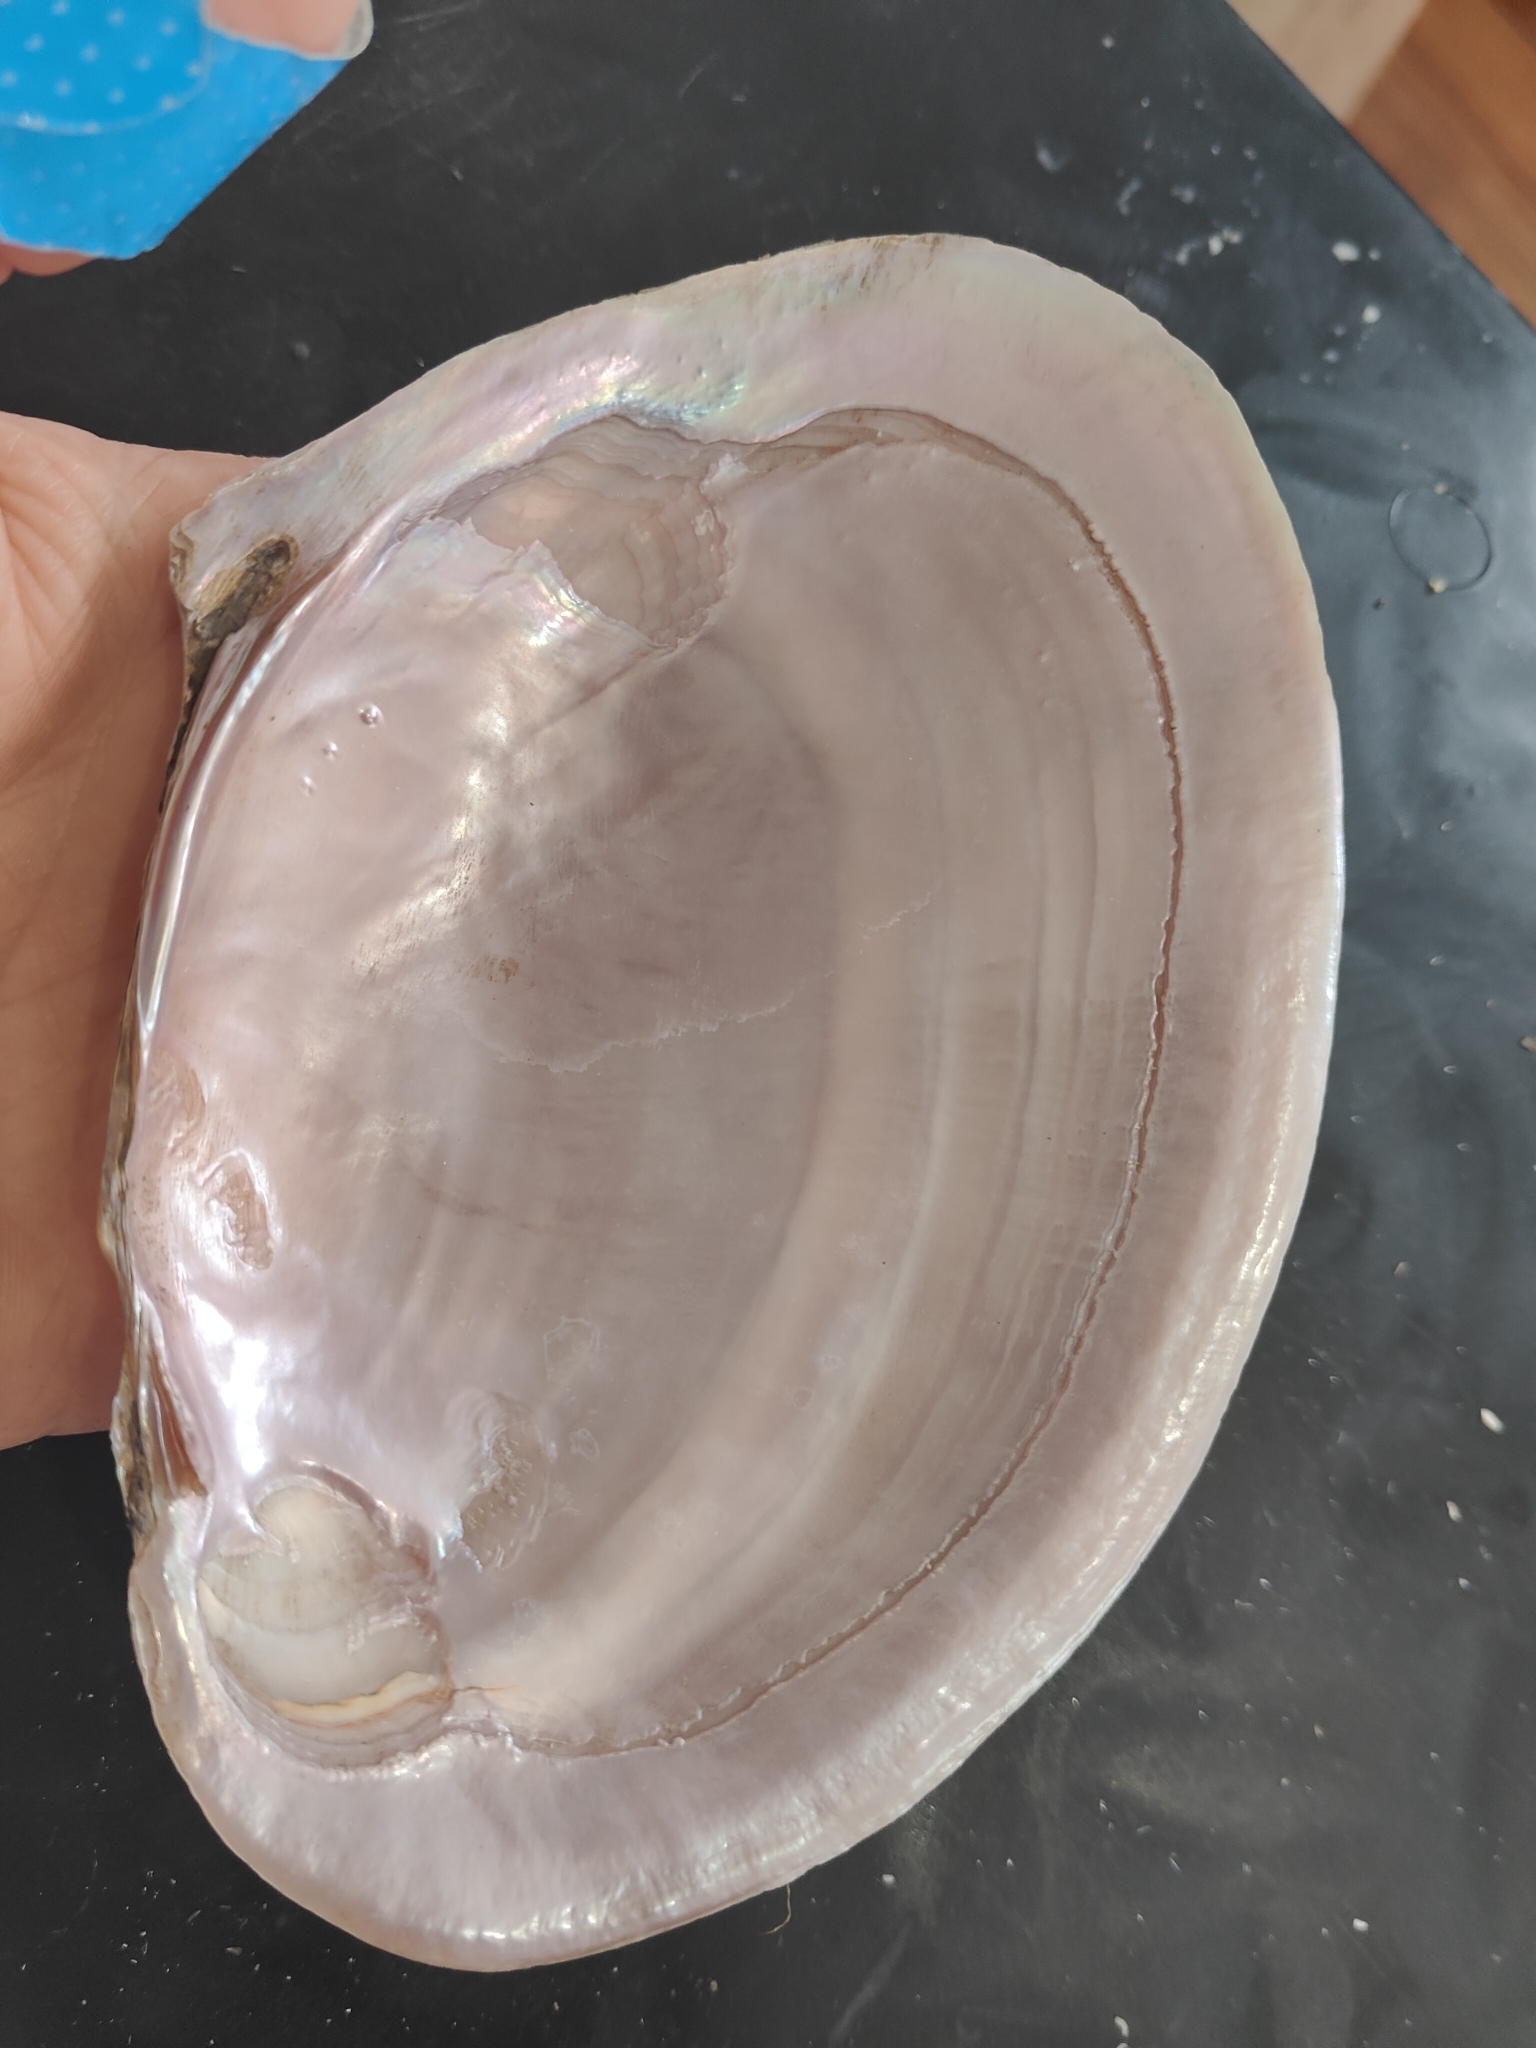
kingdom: Animalia
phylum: Mollusca
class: Bivalvia
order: Unionida
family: Unionidae
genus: Potamilus
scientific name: Potamilus ohiensis
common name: Pink papershell
